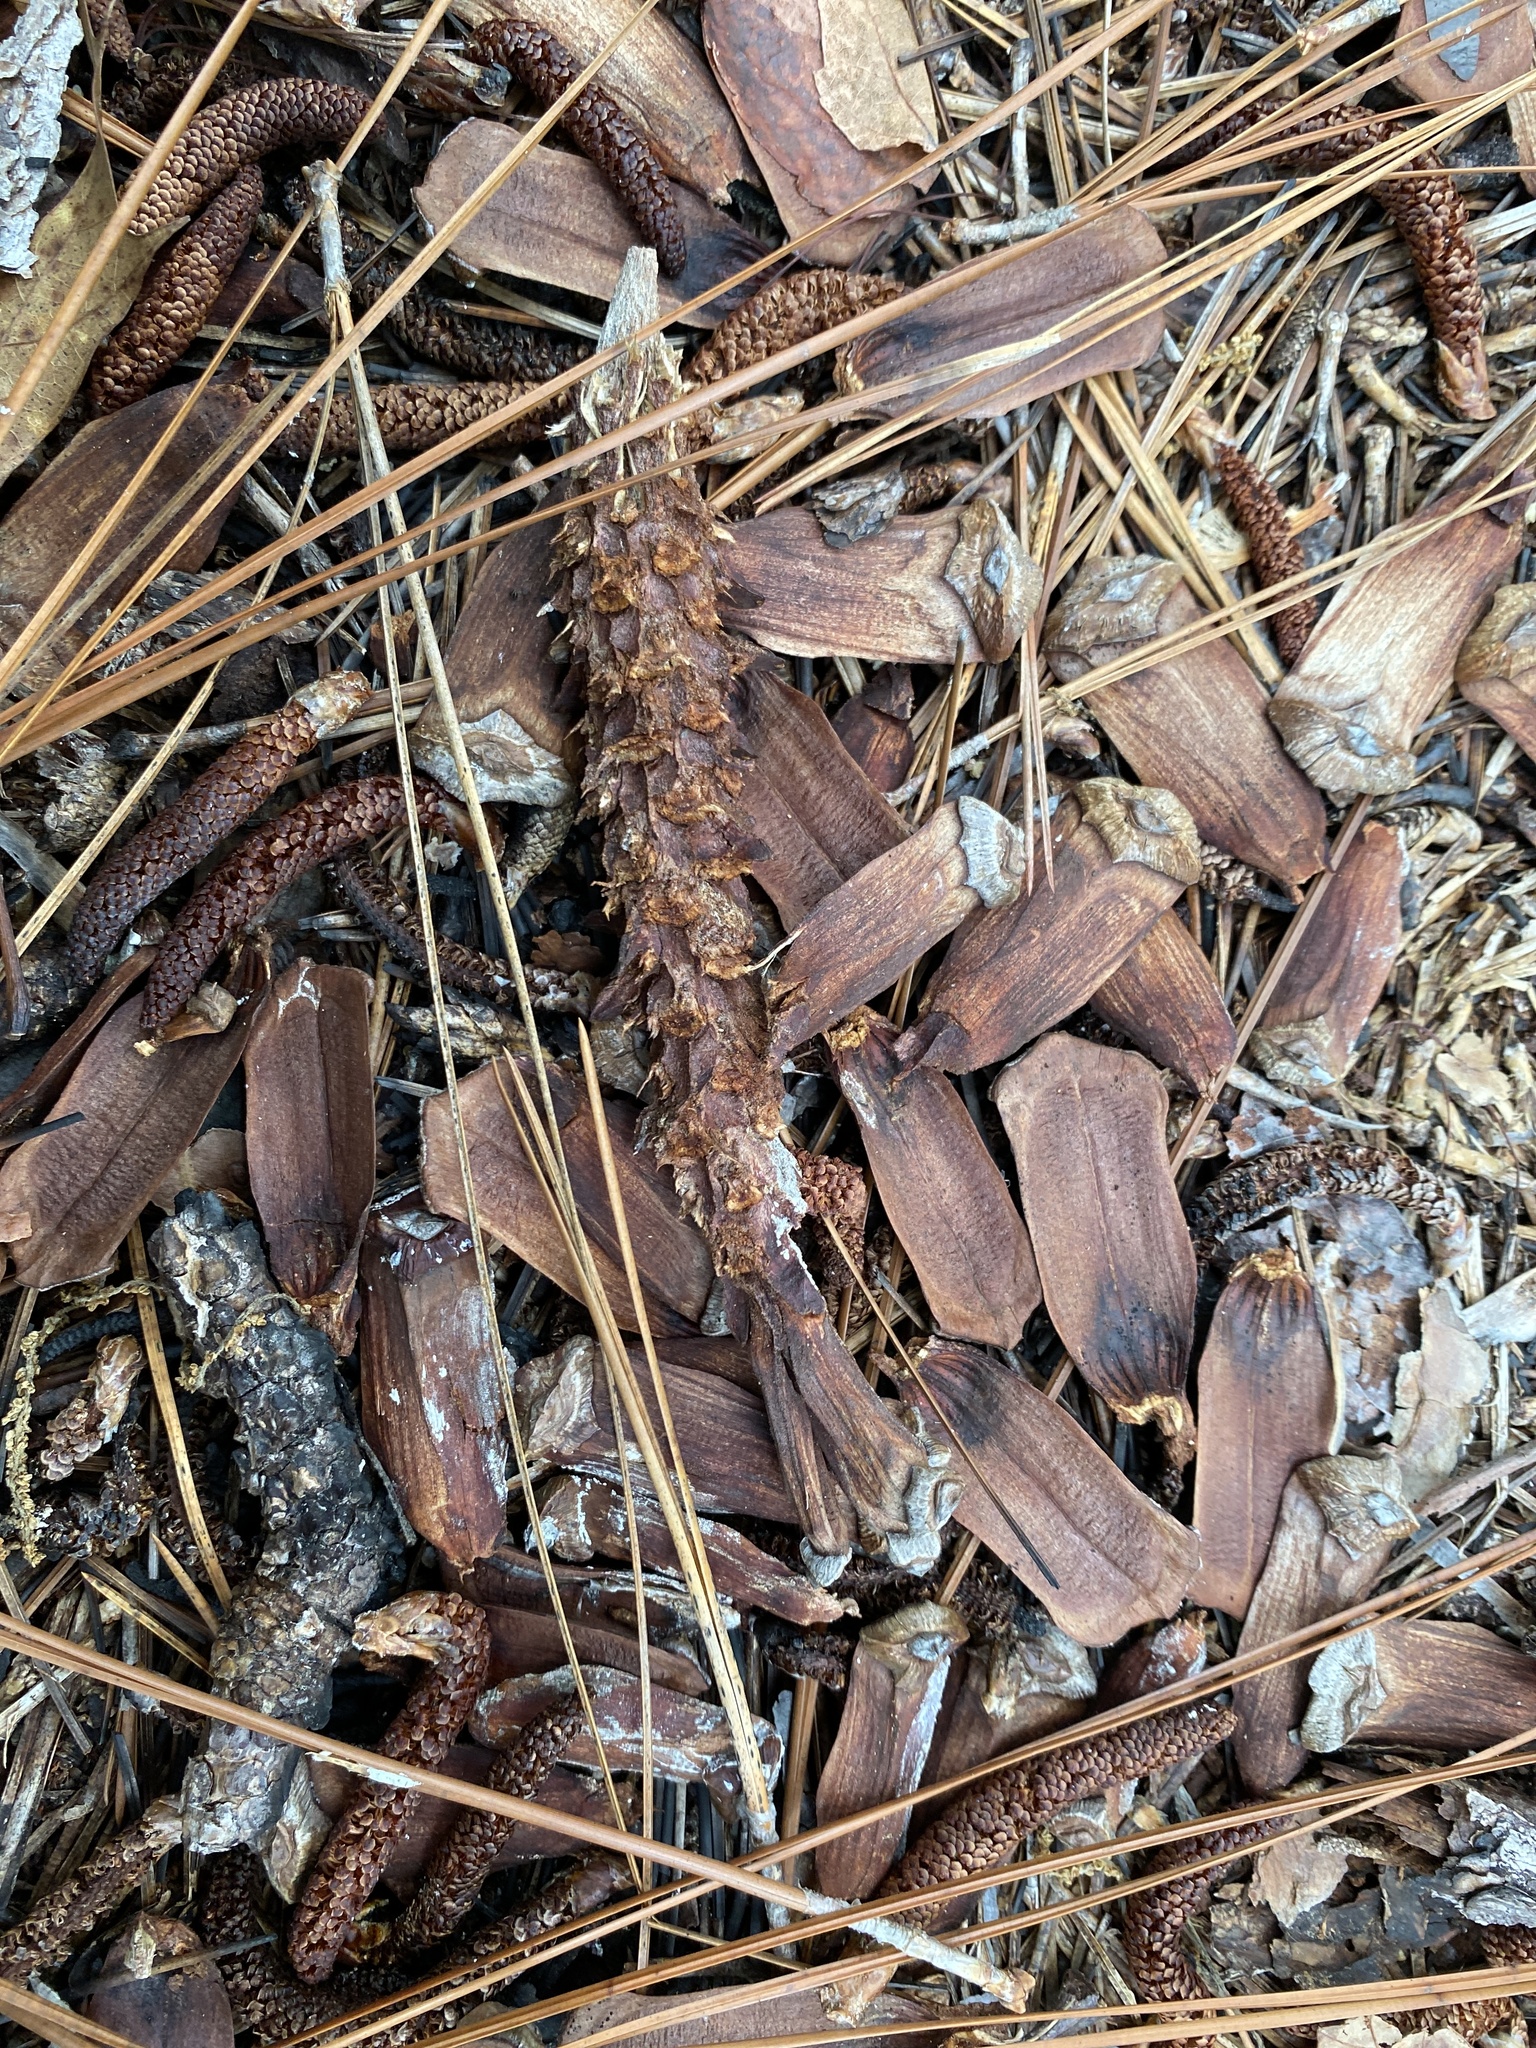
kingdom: Animalia
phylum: Chordata
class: Mammalia
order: Rodentia
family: Sciuridae
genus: Sciurus
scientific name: Sciurus niger
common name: Fox squirrel
